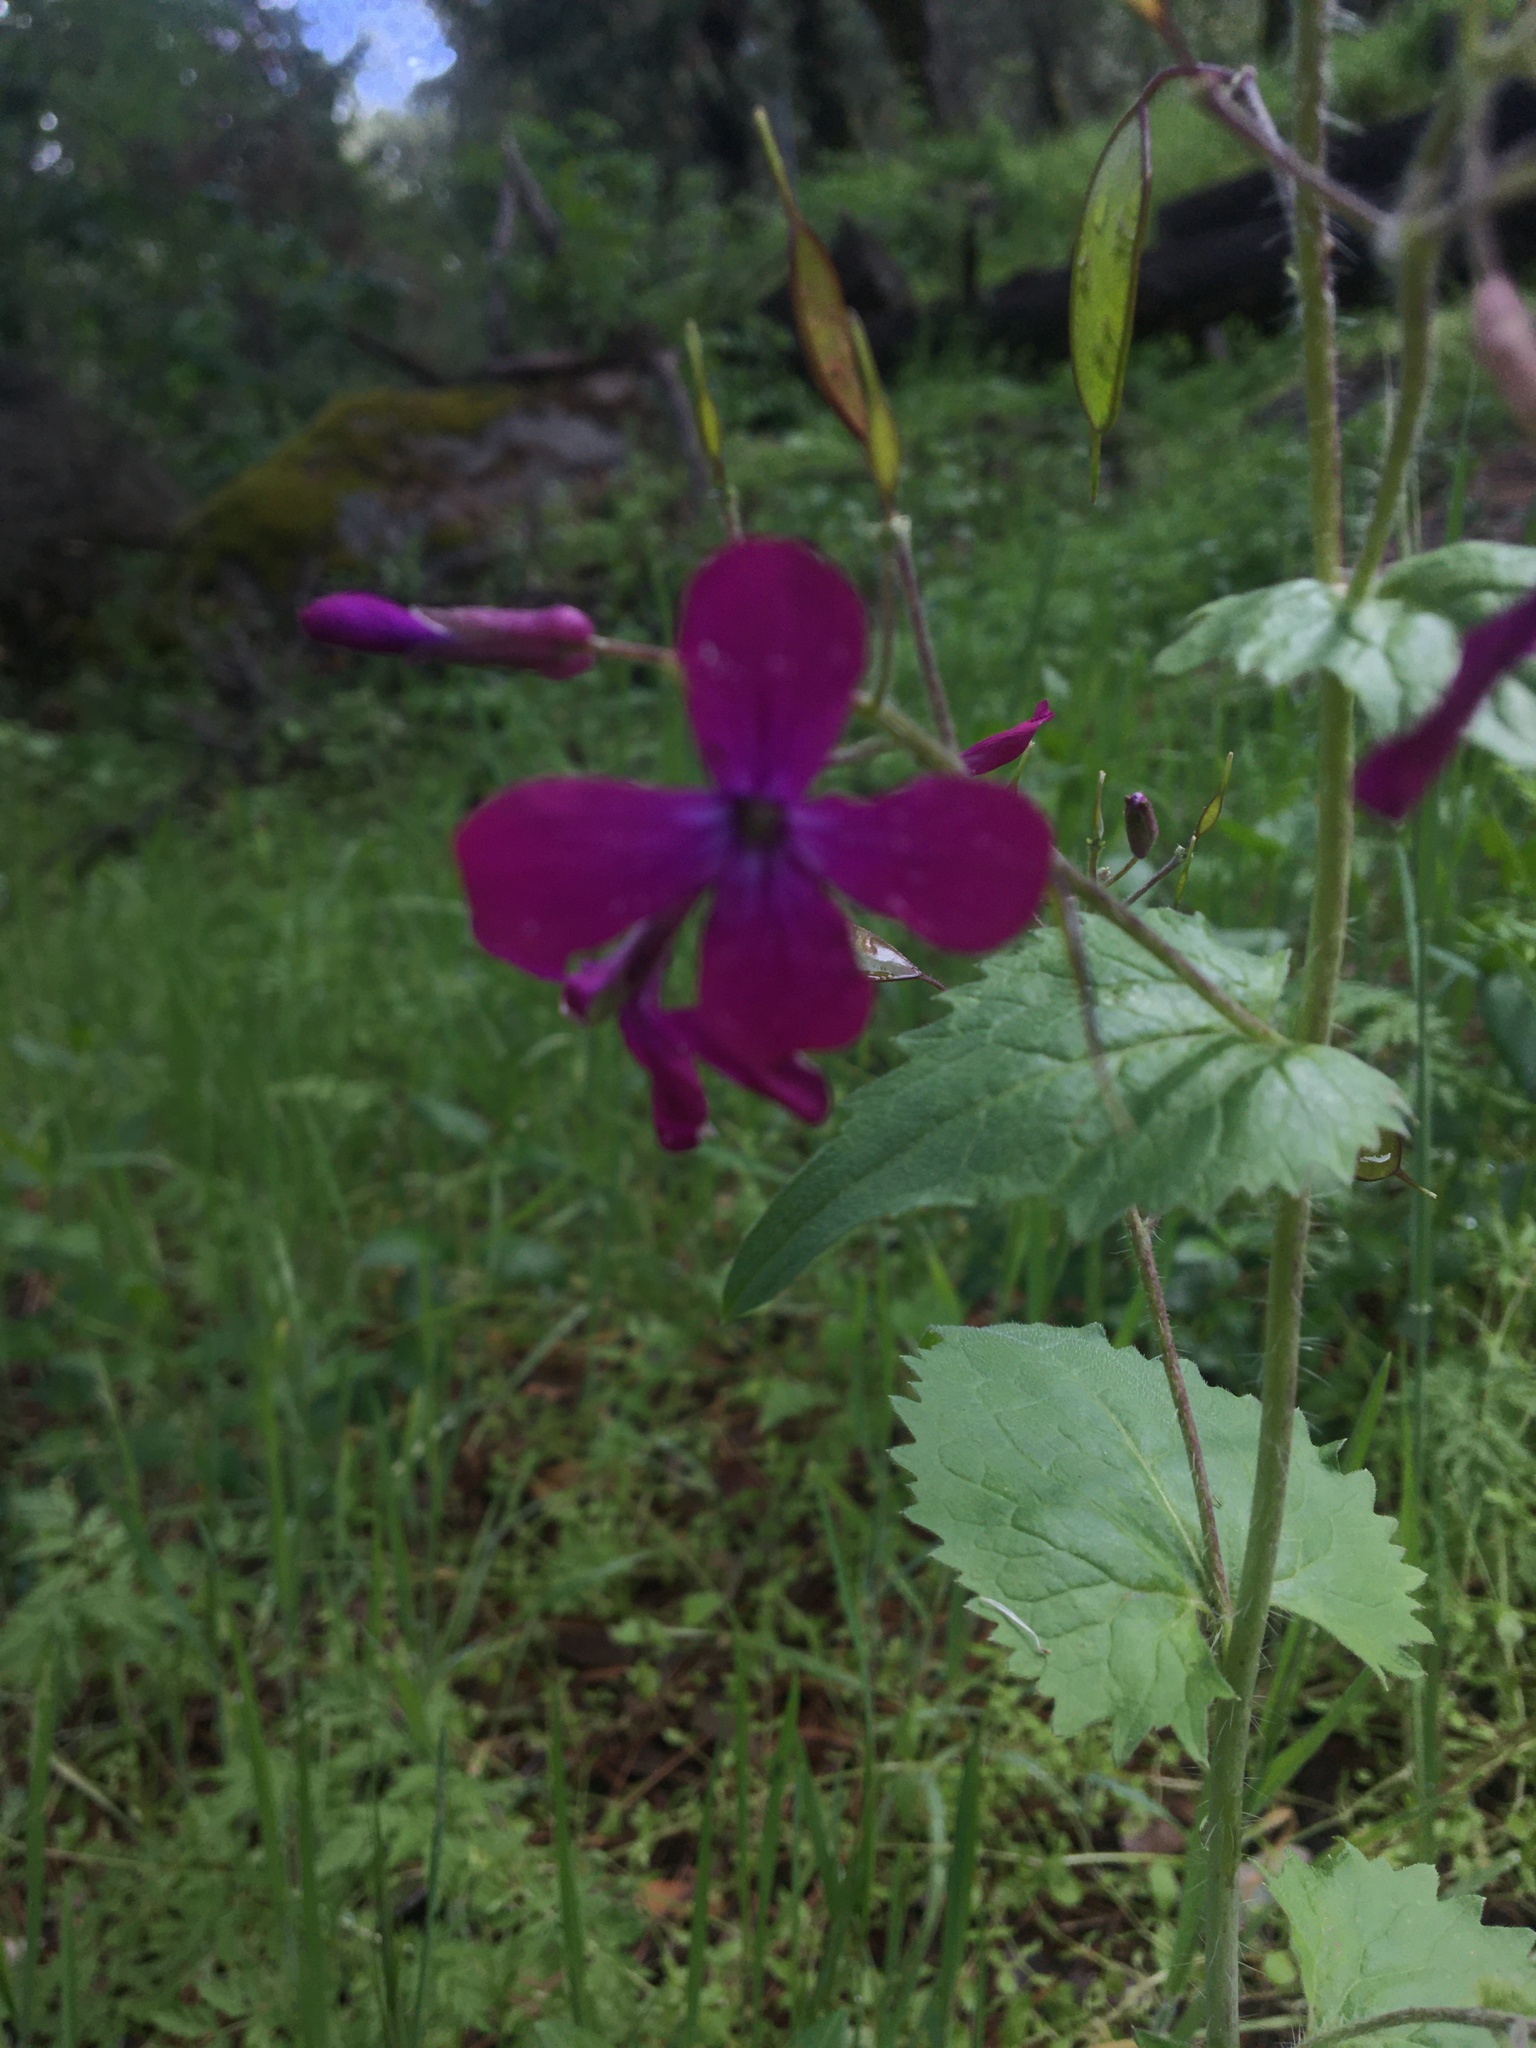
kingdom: Plantae
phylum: Tracheophyta
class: Magnoliopsida
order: Brassicales
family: Brassicaceae
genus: Lunaria
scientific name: Lunaria annua
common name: Honesty
